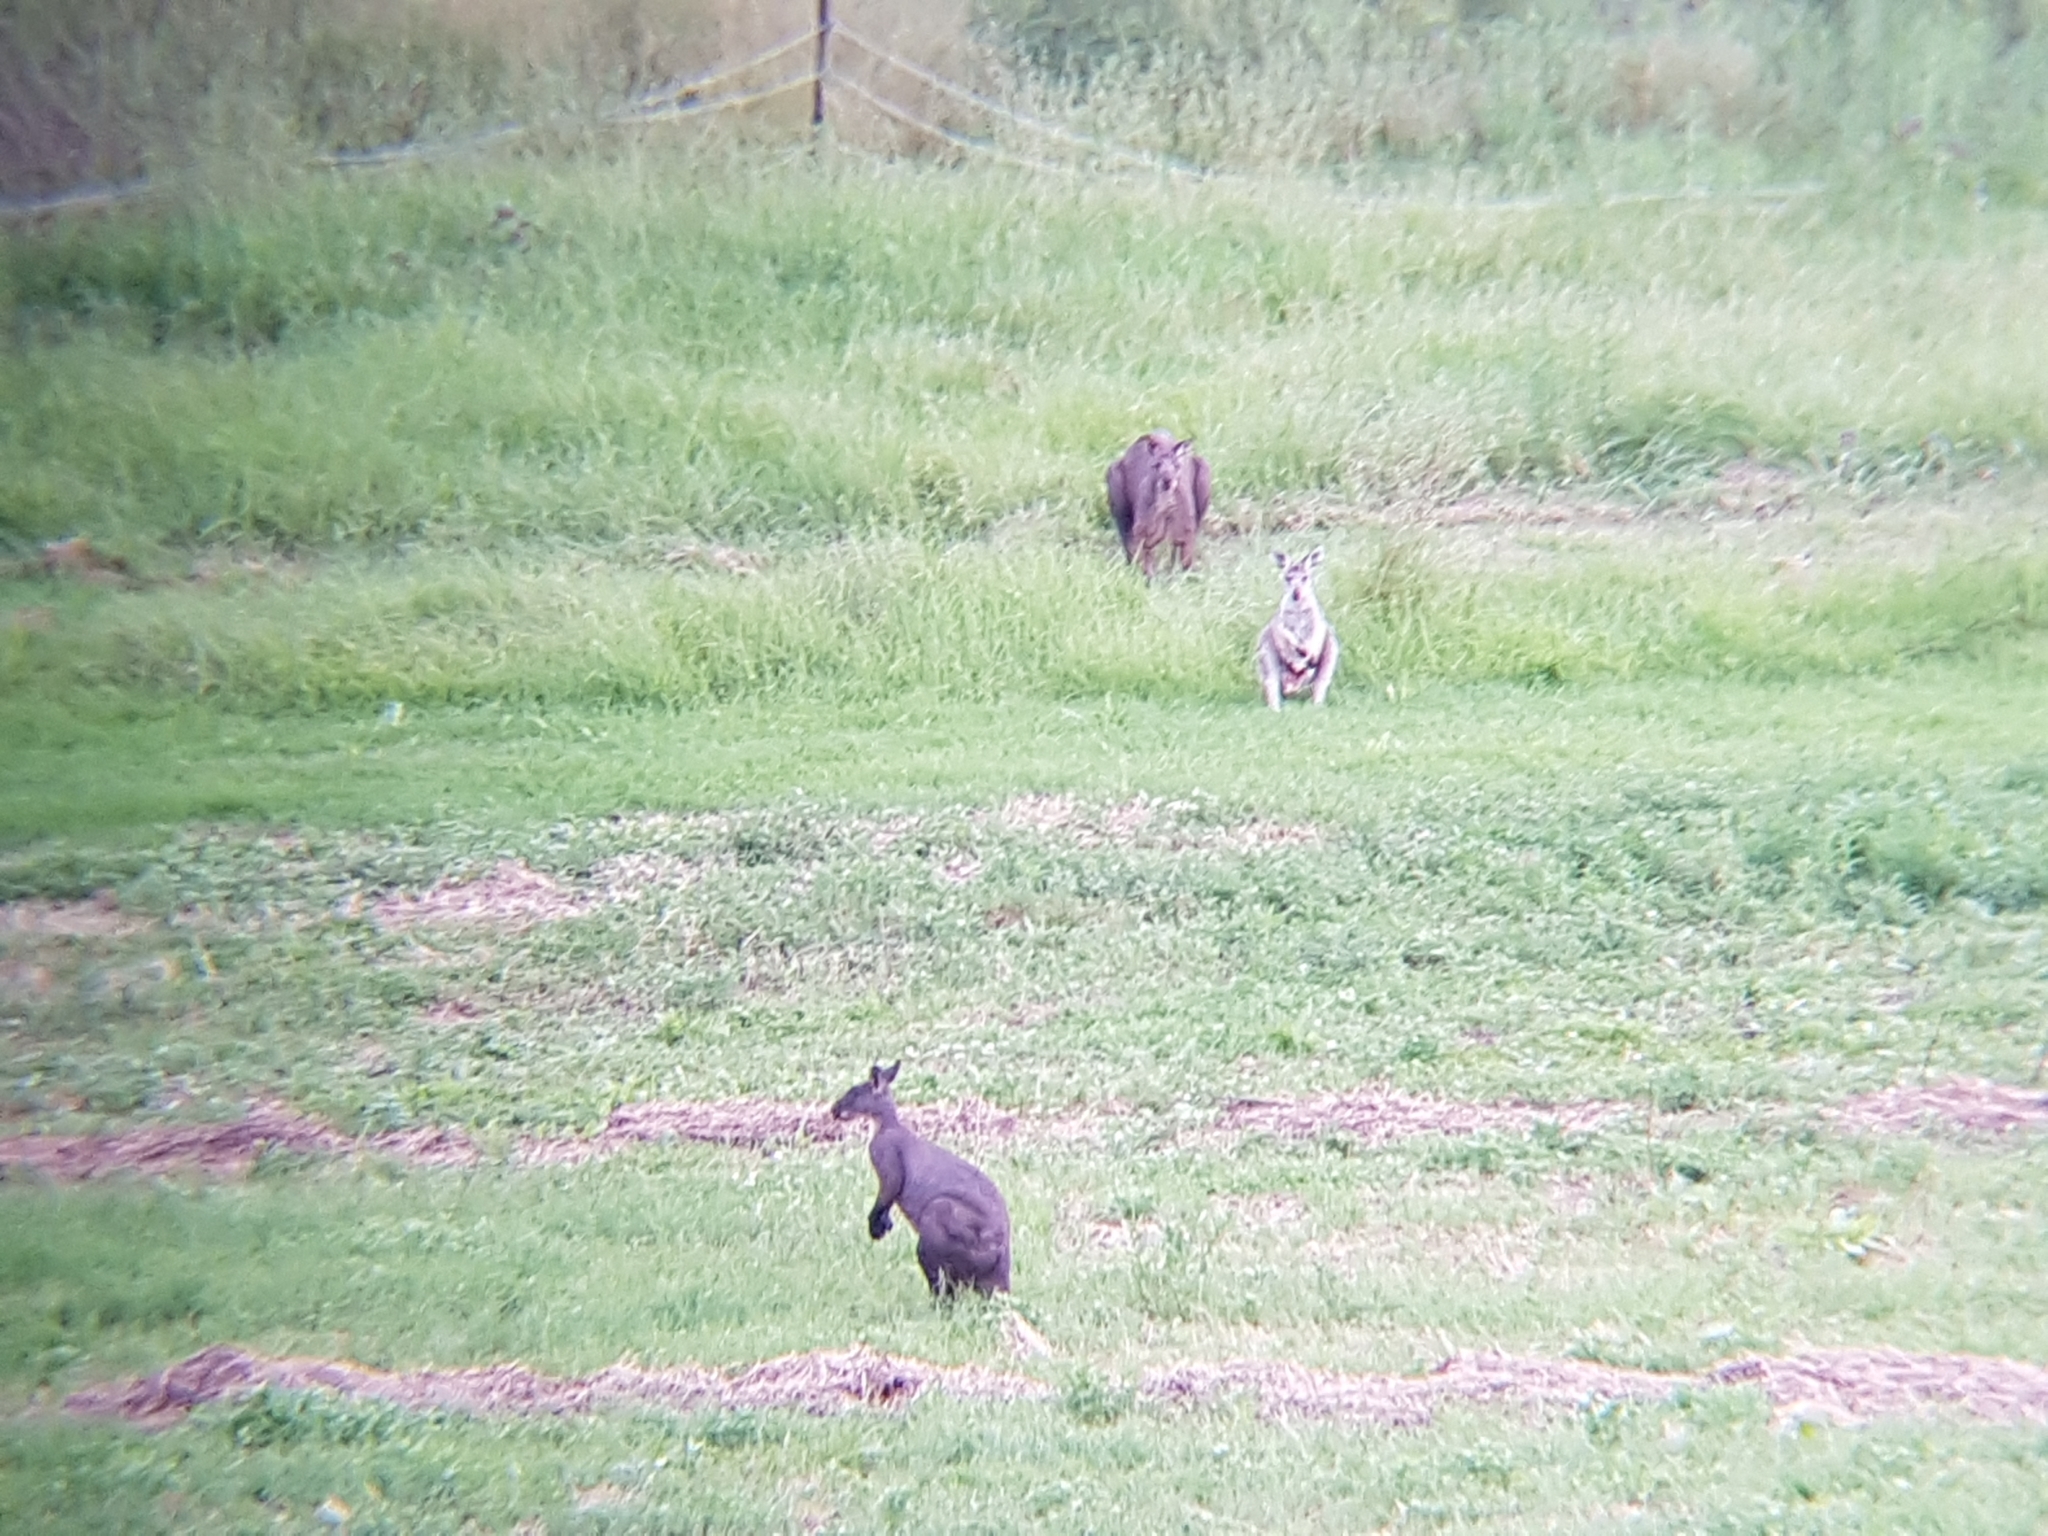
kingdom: Animalia
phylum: Chordata
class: Mammalia
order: Diprotodontia
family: Macropodidae
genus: Macropus
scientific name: Macropus robustus
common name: Eastern wallaroo
